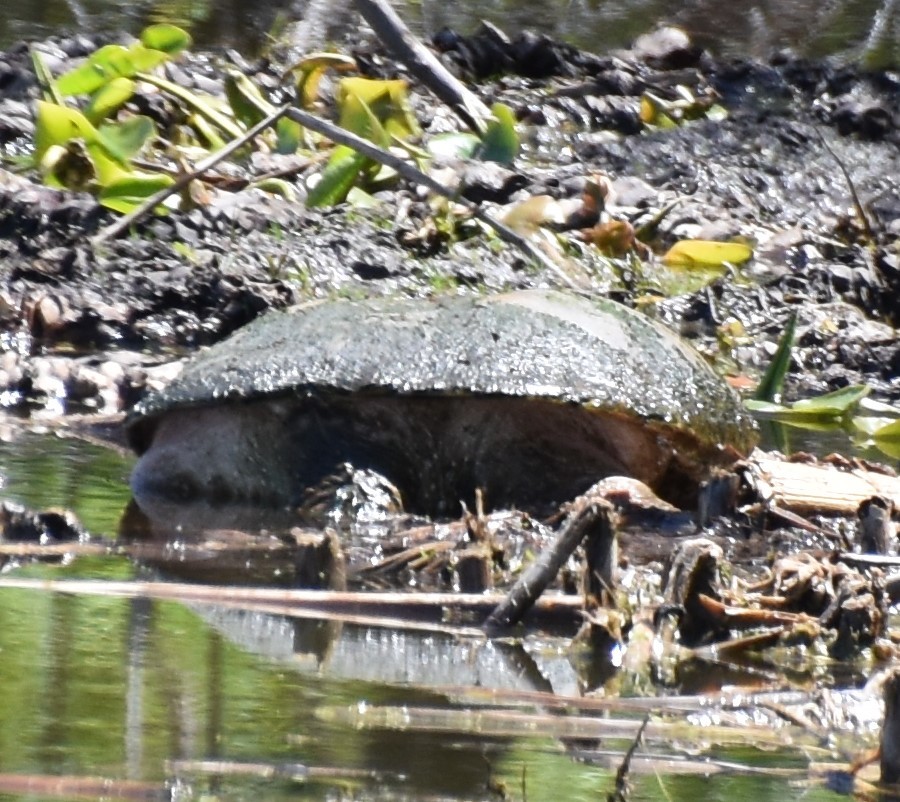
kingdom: Animalia
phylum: Chordata
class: Testudines
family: Chelydridae
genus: Chelydra
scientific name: Chelydra serpentina
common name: Common snapping turtle
